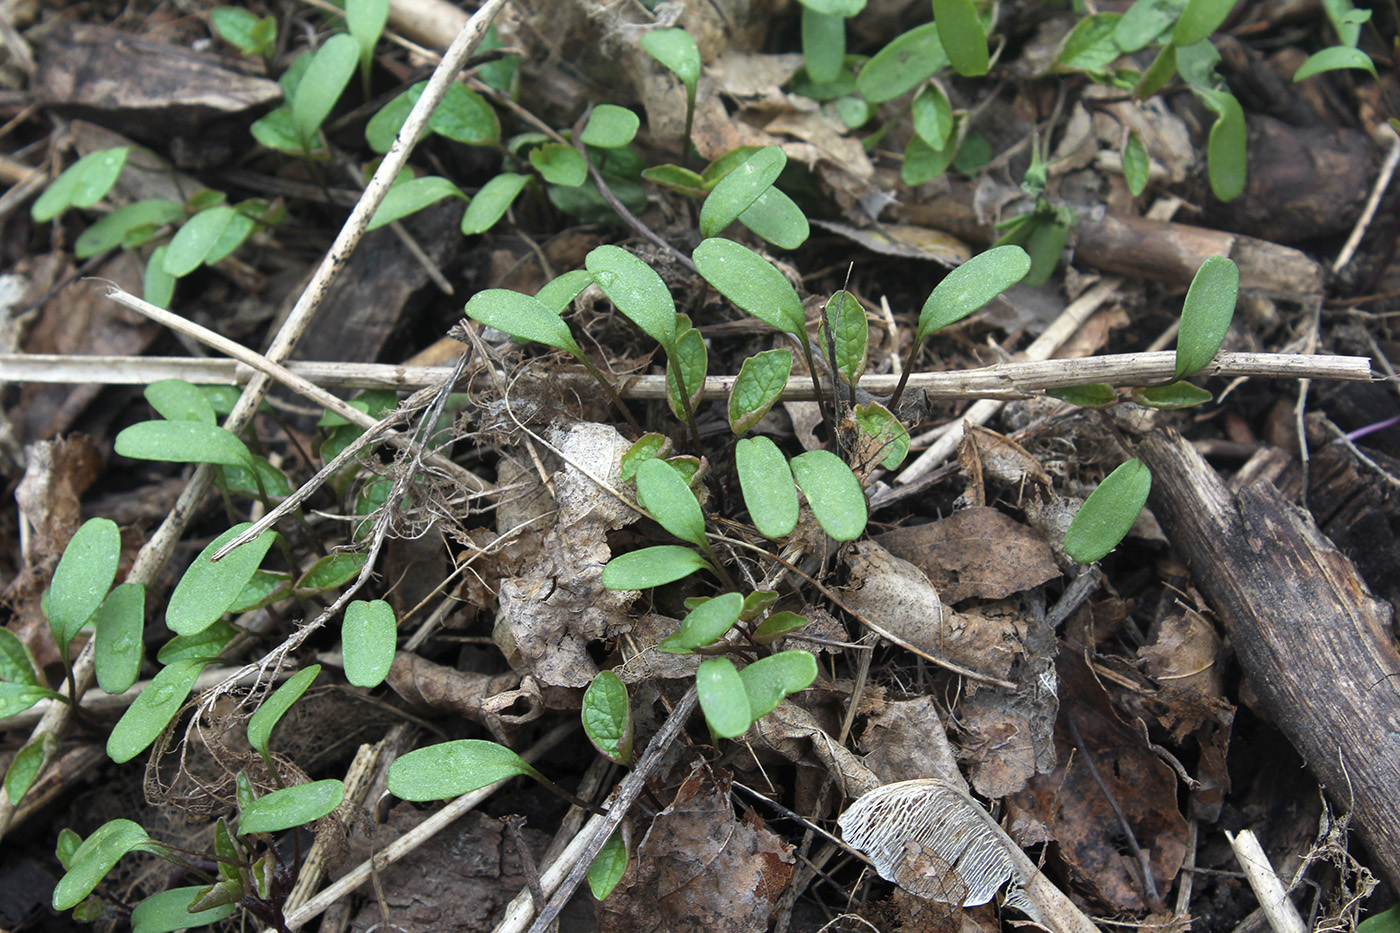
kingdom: Plantae
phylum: Tracheophyta
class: Magnoliopsida
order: Brassicales
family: Brassicaceae
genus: Alliaria
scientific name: Alliaria petiolata
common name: Garlic mustard
